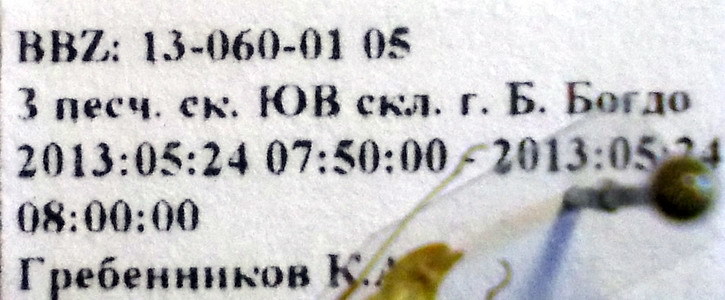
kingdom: Animalia
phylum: Arthropoda
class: Insecta
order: Hemiptera
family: Miridae
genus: Chorosomella
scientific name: Chorosomella jakowleffi
